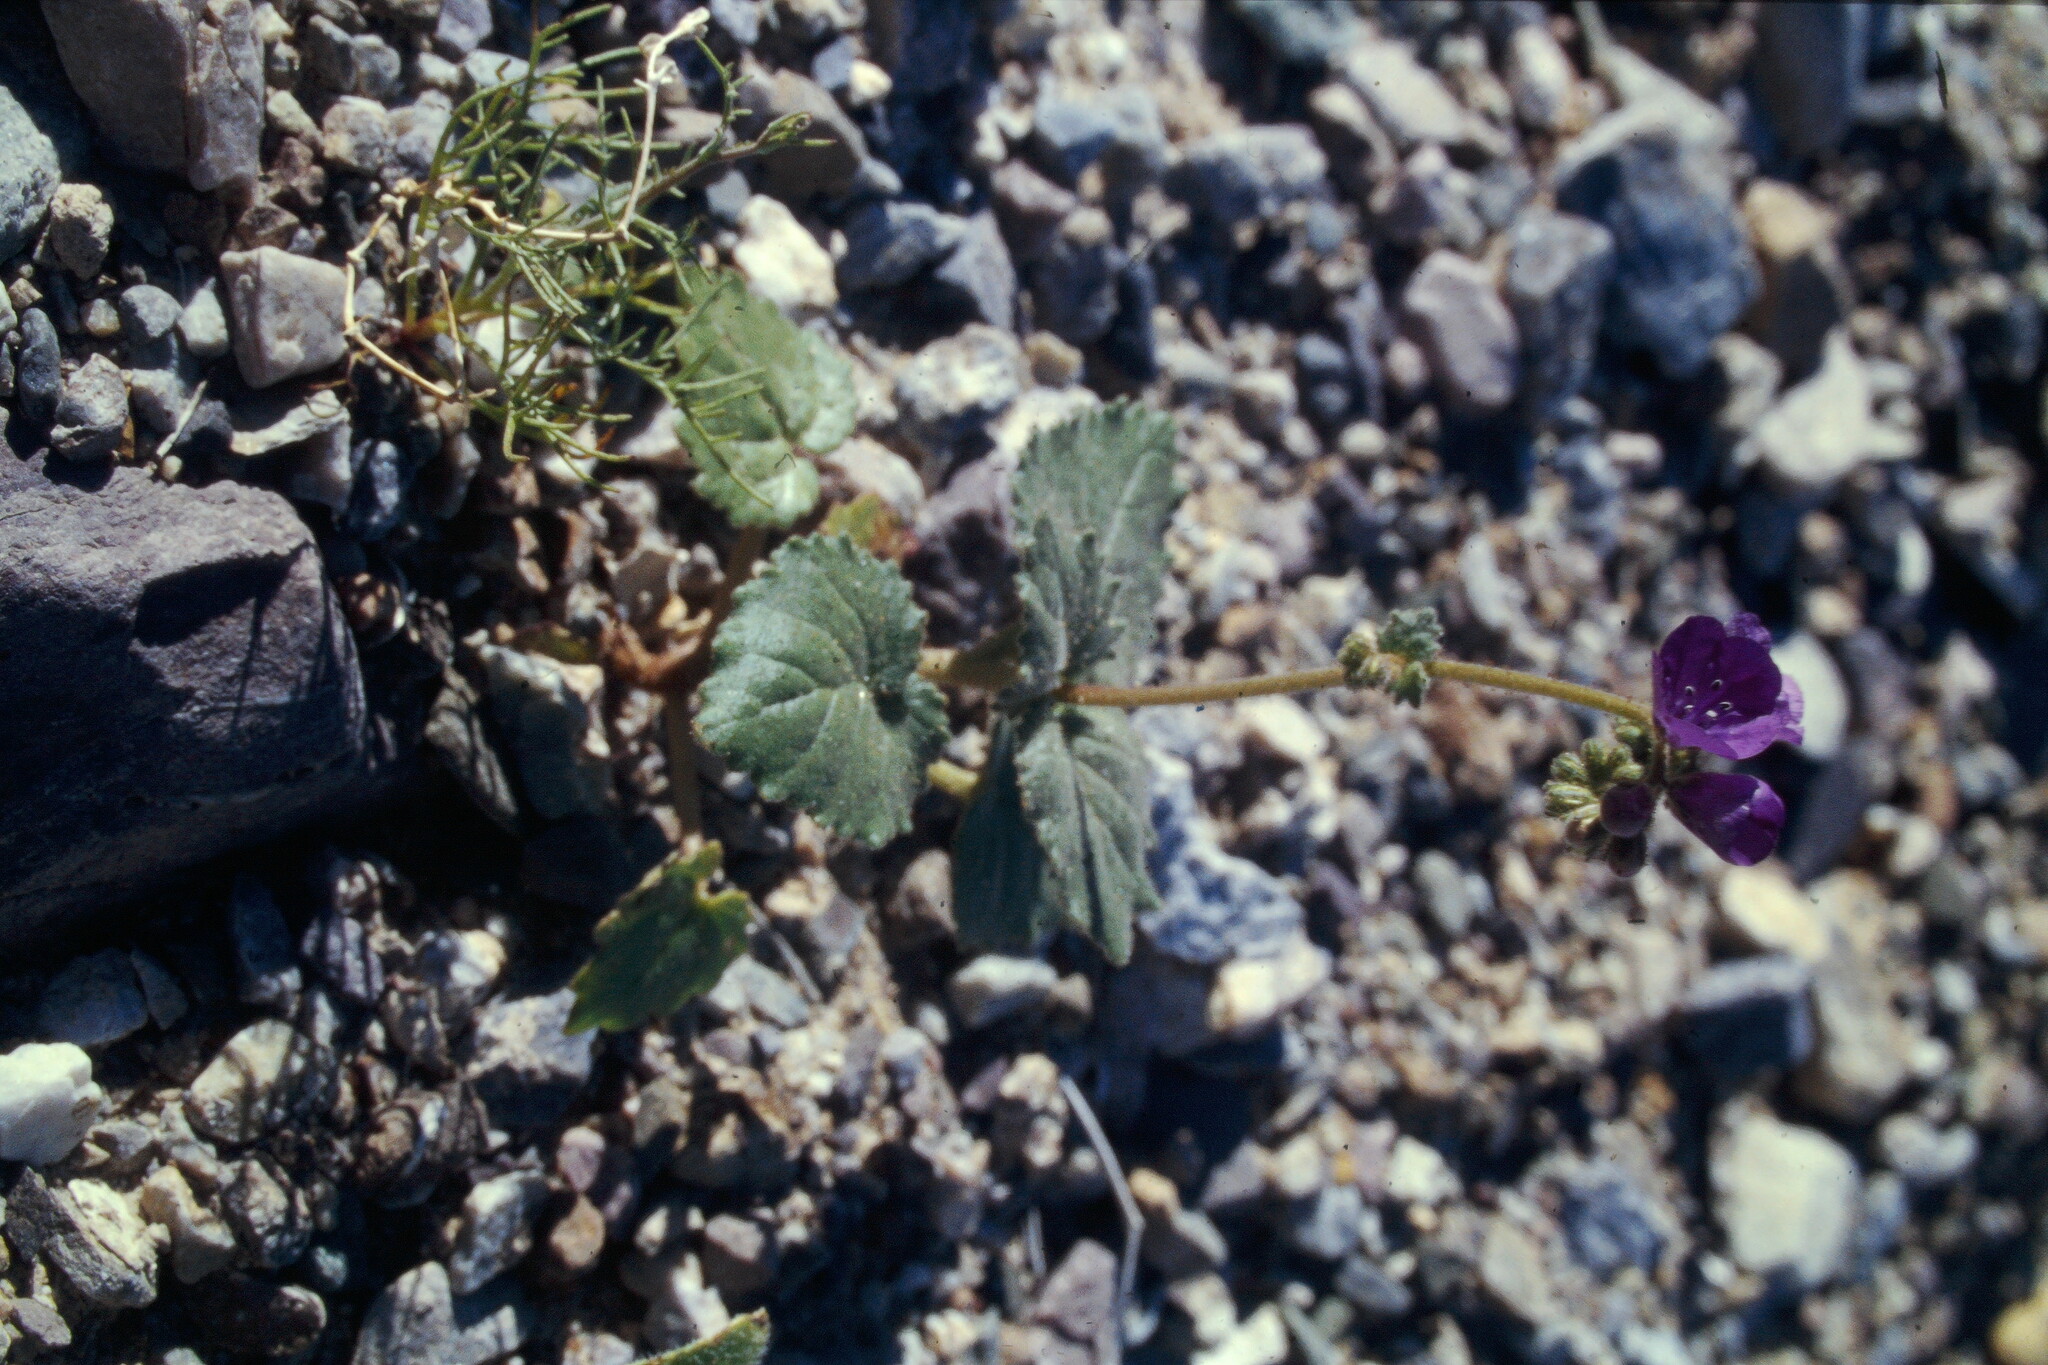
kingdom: Plantae
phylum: Tracheophyta
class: Magnoliopsida
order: Boraginales
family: Hydrophyllaceae
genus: Phacelia
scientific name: Phacelia calthifolia
